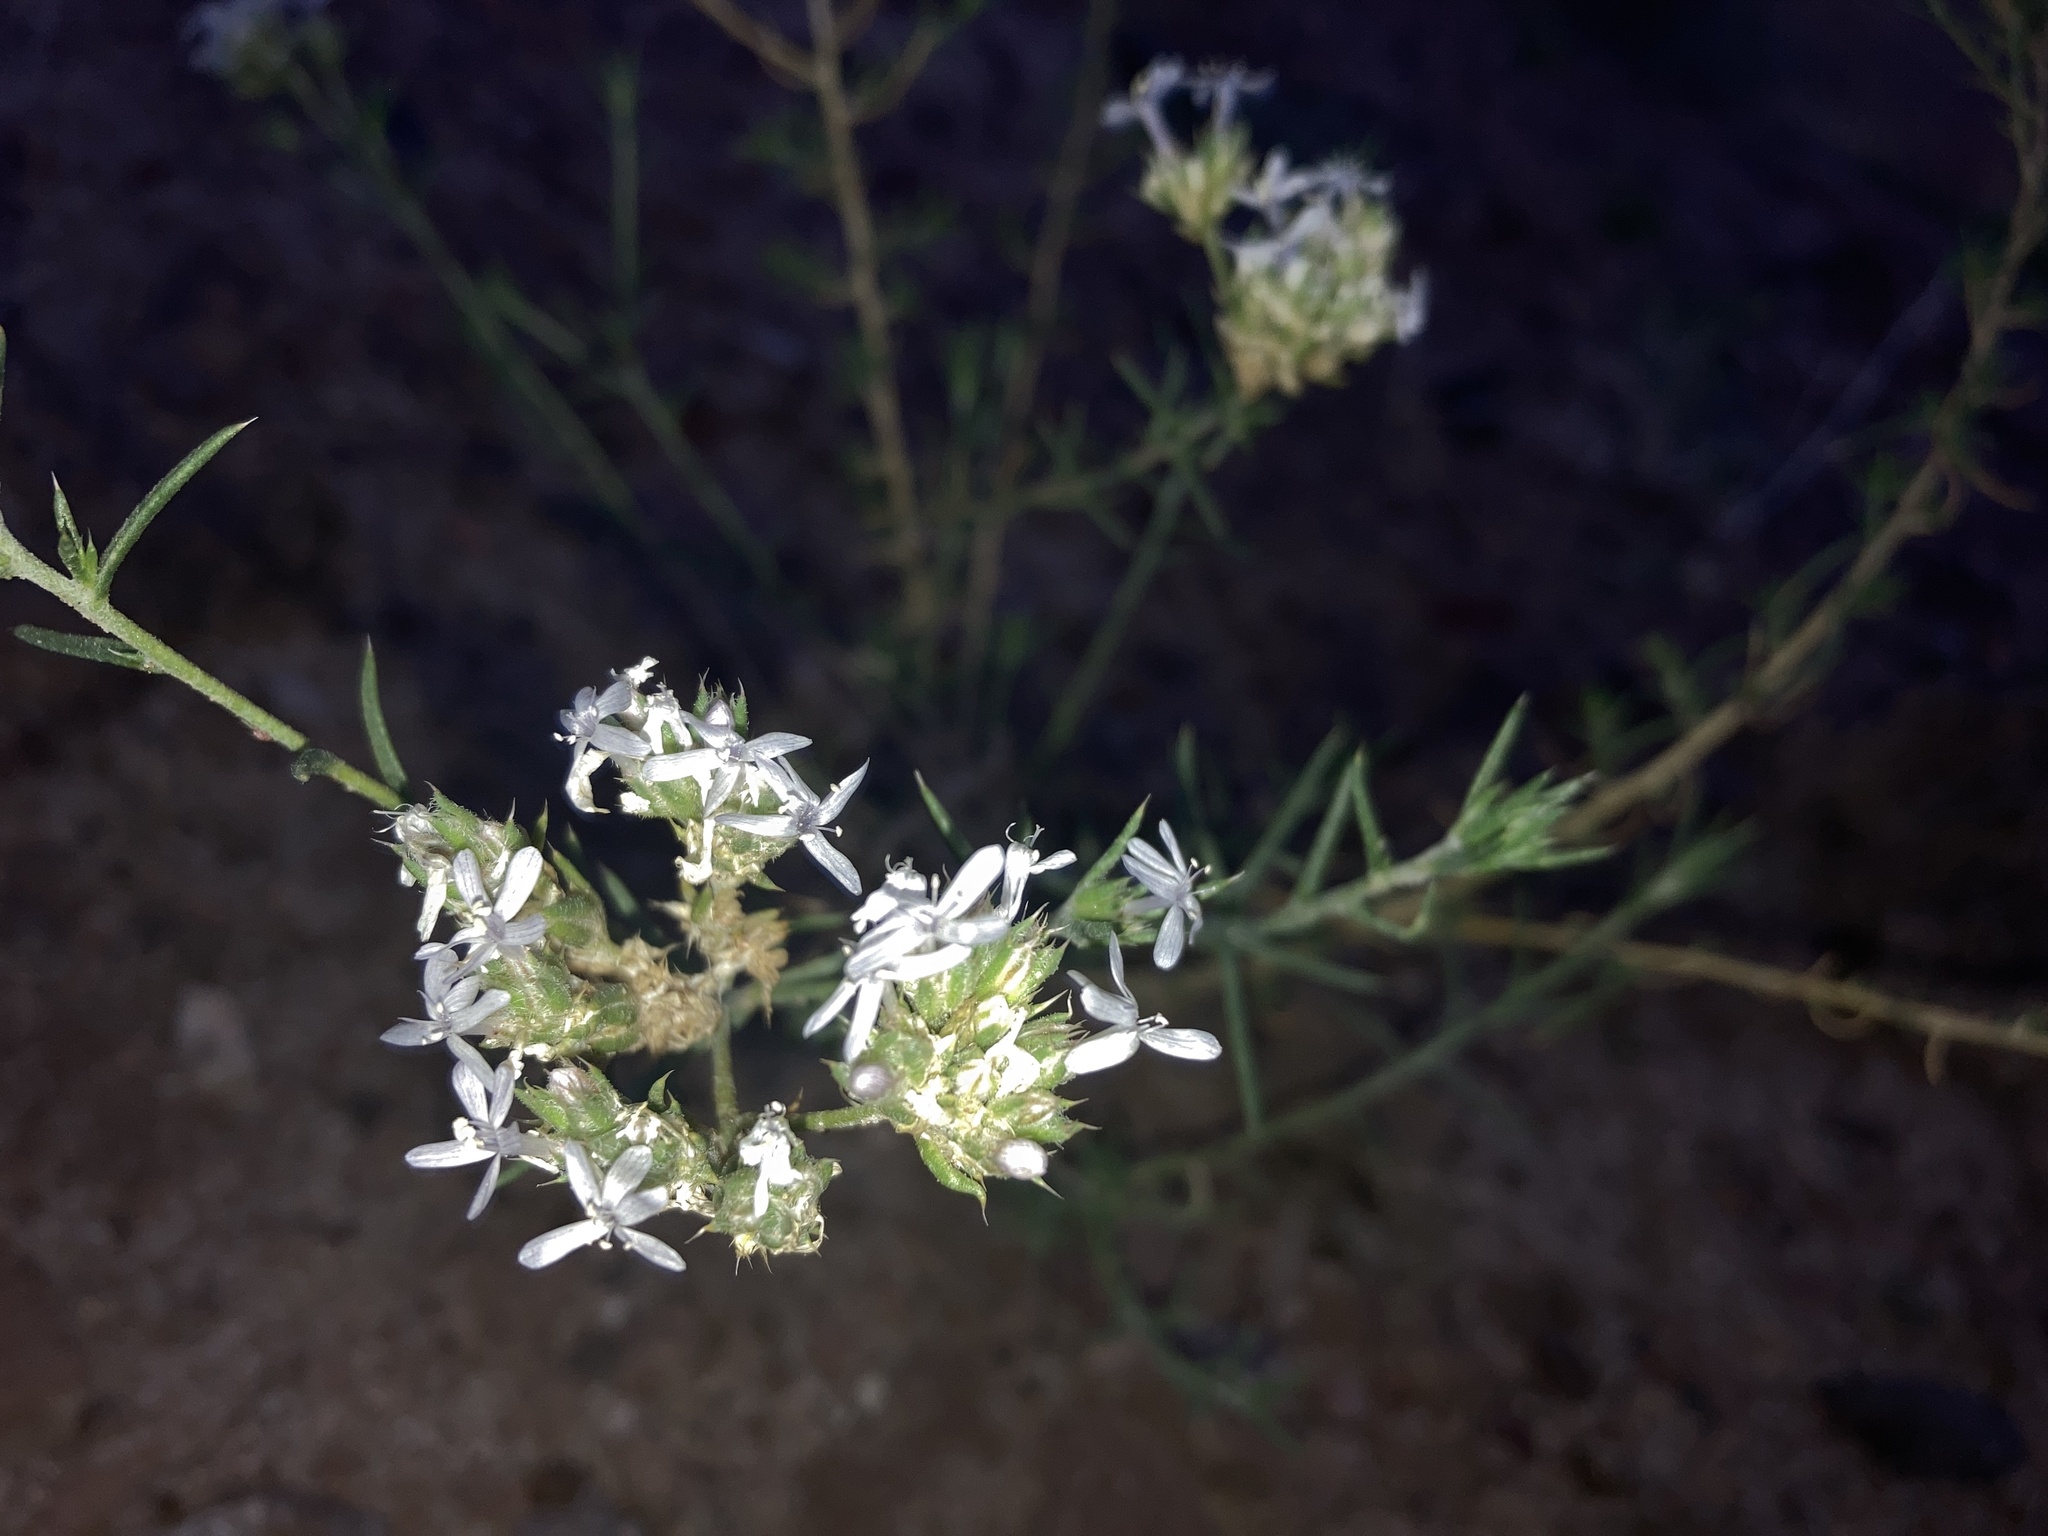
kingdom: Plantae
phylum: Tracheophyta
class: Magnoliopsida
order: Ericales
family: Polemoniaceae
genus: Ipomopsis
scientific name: Ipomopsis wrightii
